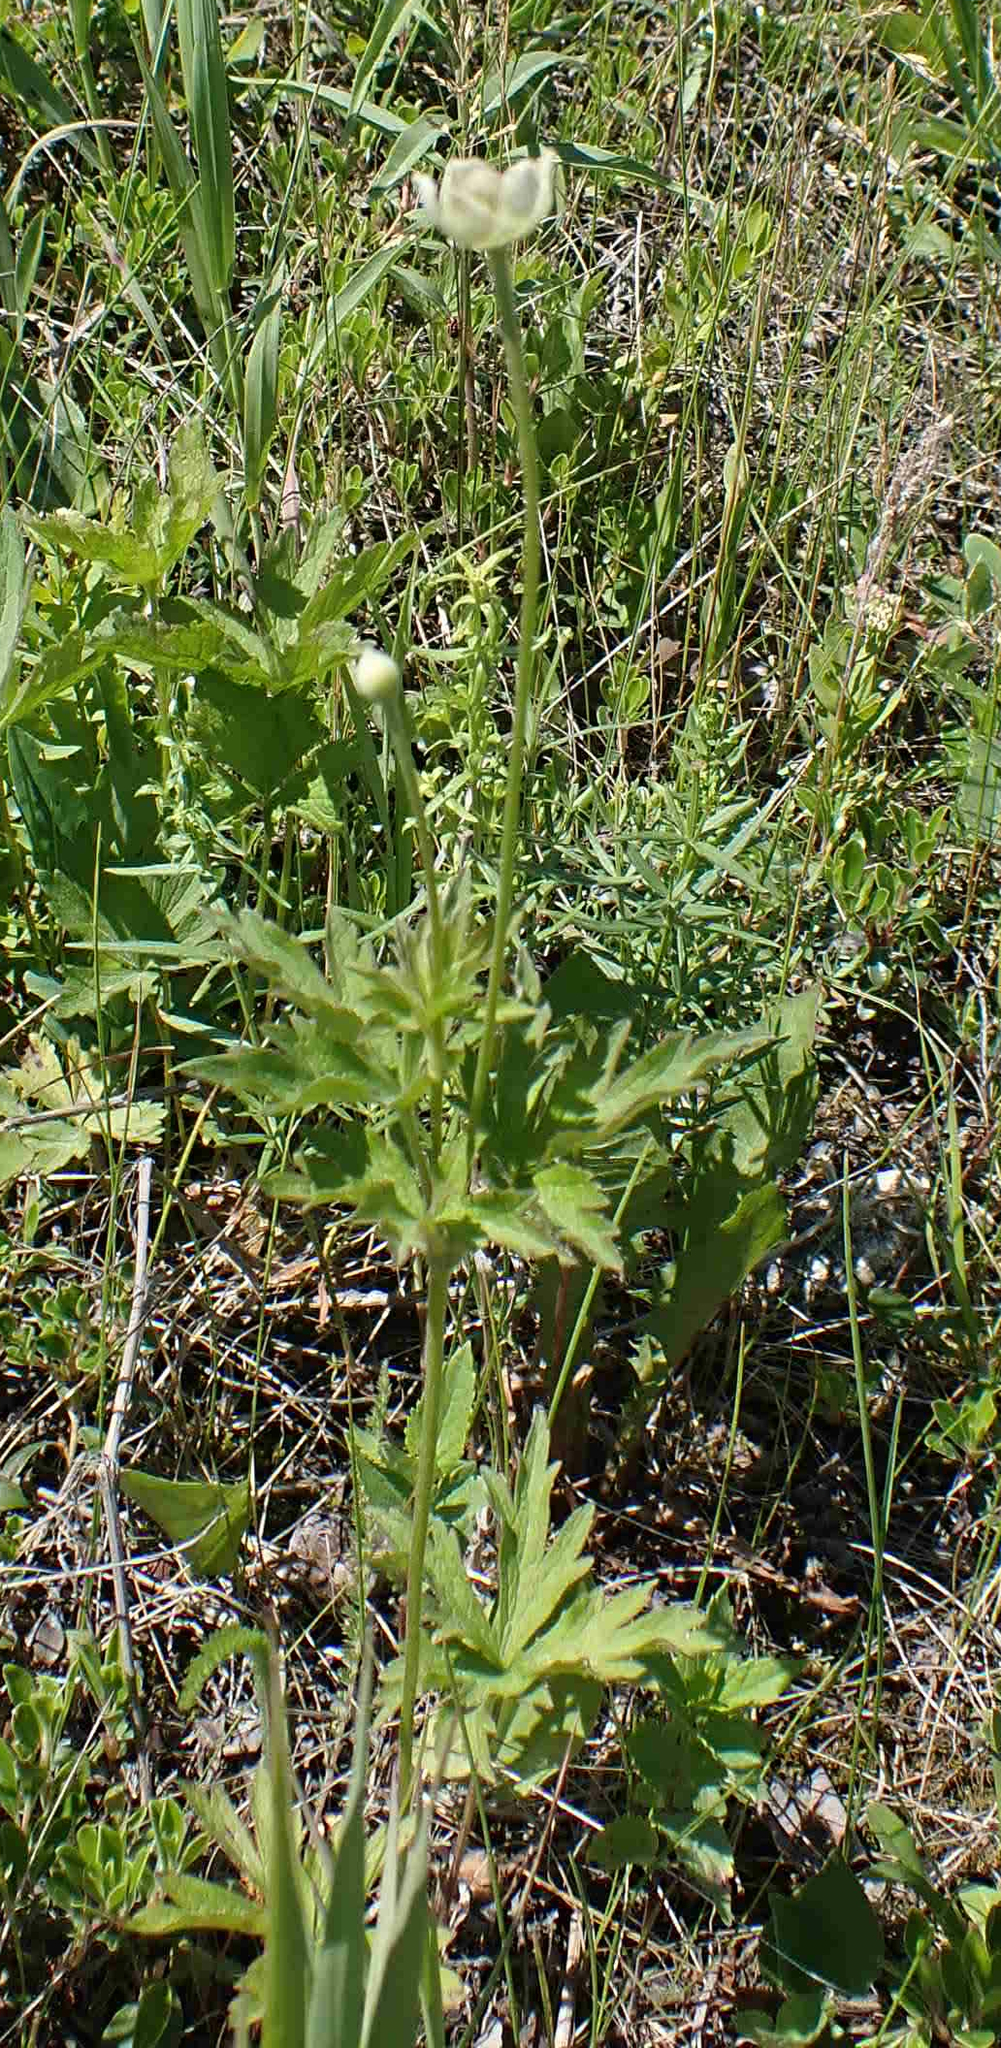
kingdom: Plantae
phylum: Tracheophyta
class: Magnoliopsida
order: Ranunculales
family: Ranunculaceae
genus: Anemone
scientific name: Anemone cylindrica
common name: Candle anemone
